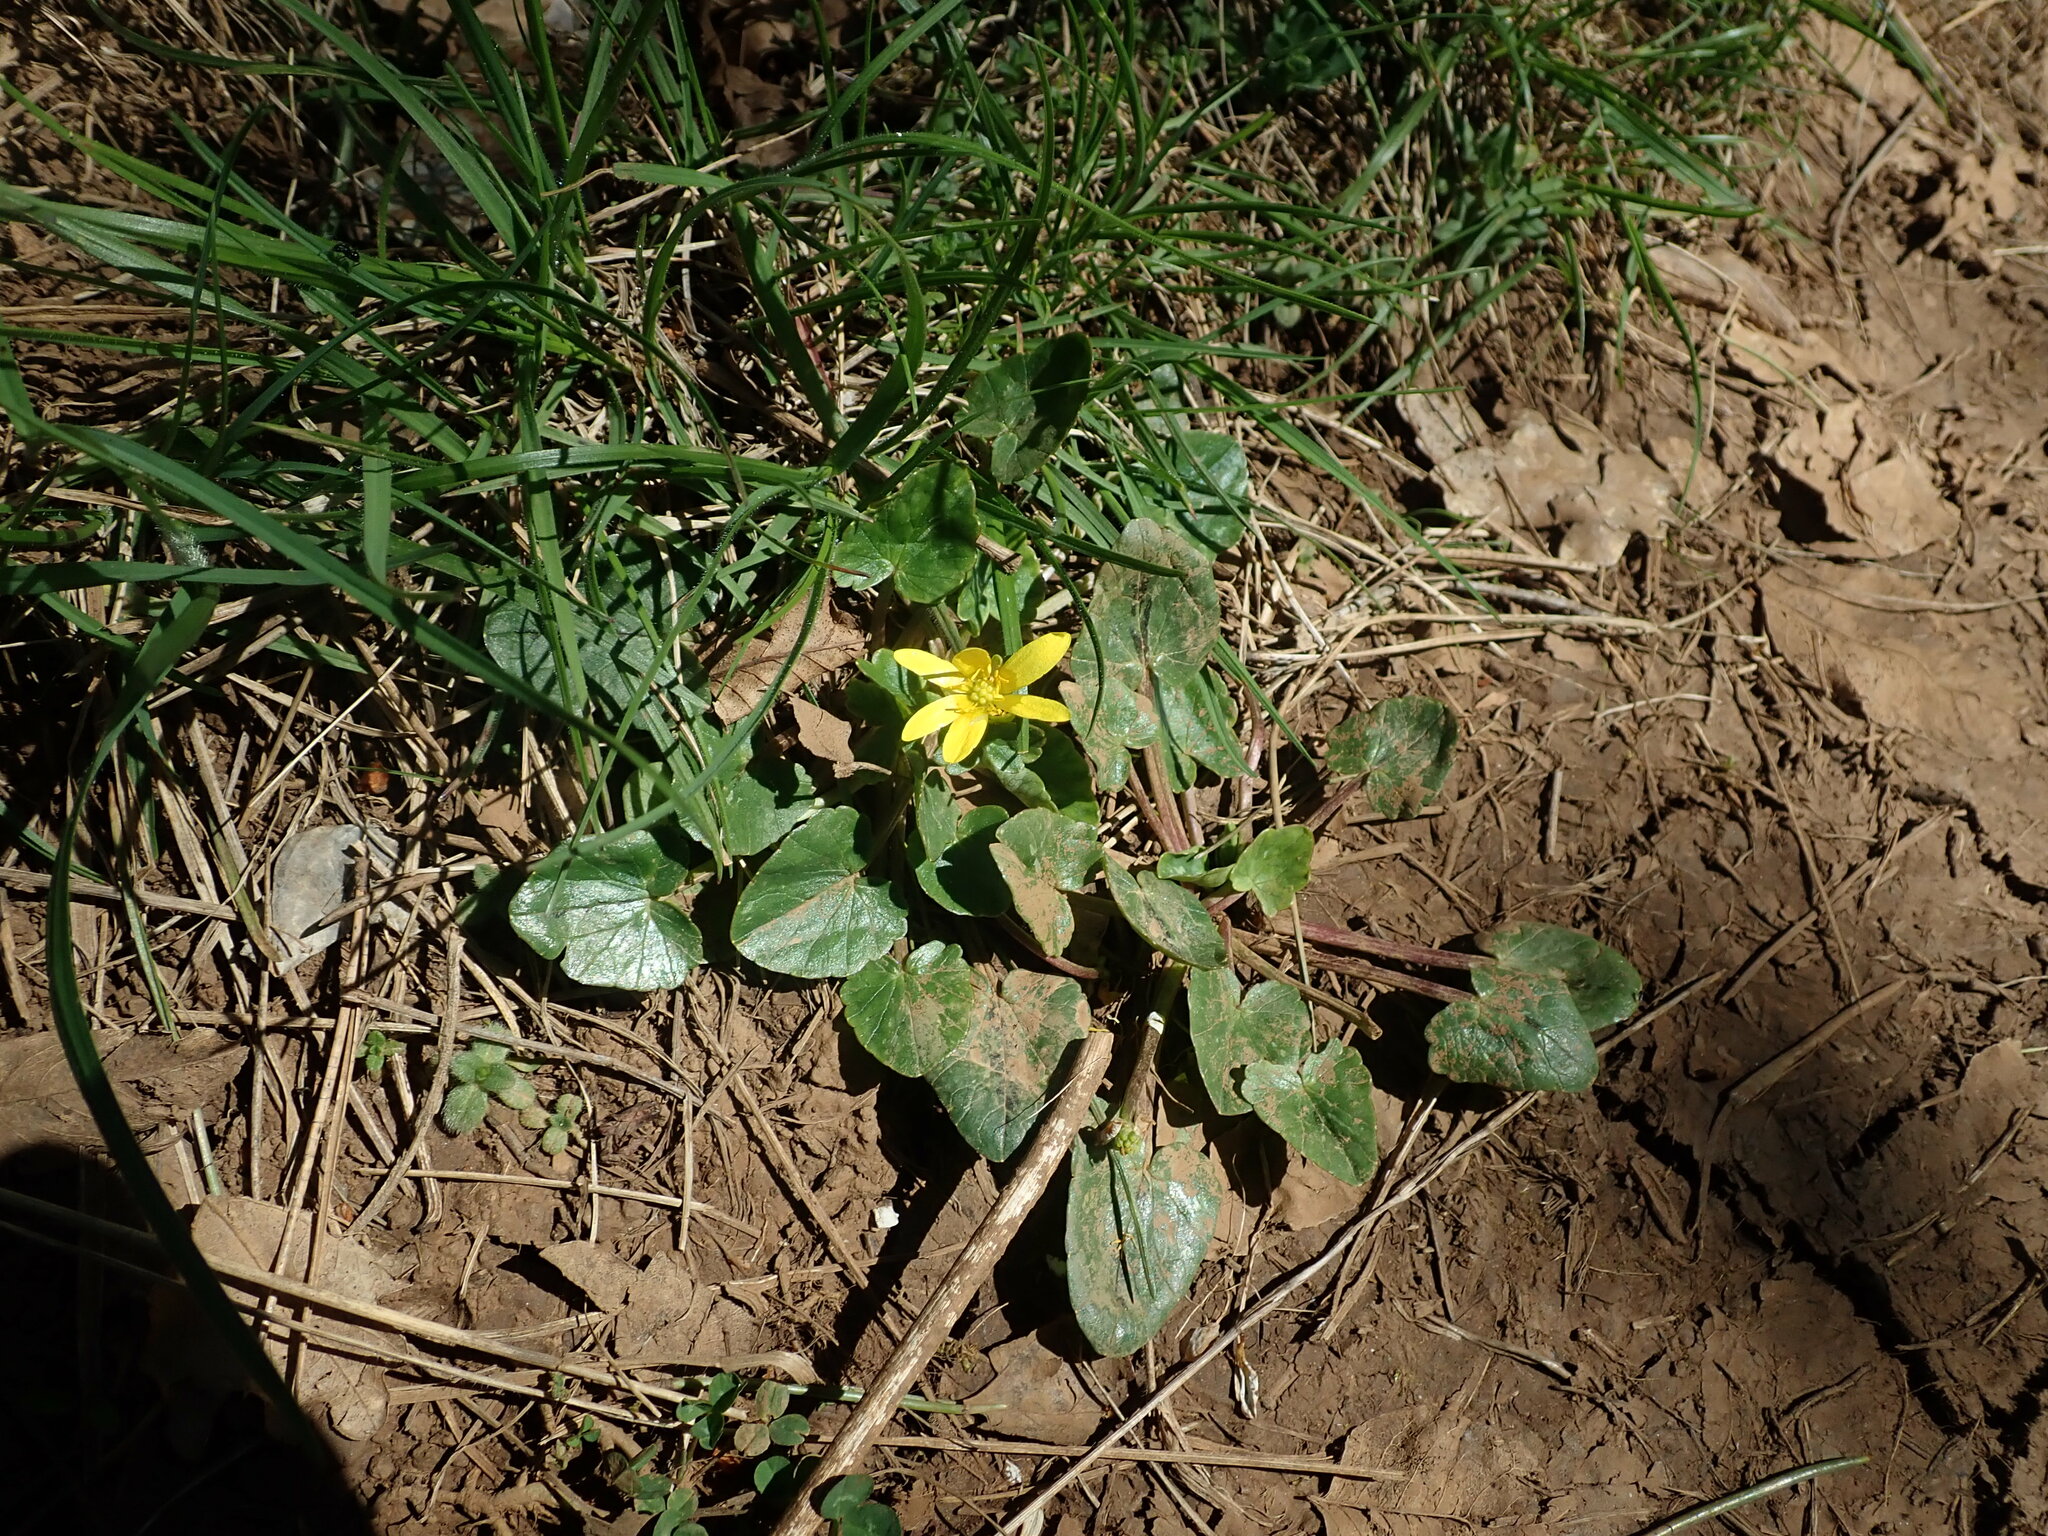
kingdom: Plantae
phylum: Tracheophyta
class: Magnoliopsida
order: Ranunculales
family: Ranunculaceae
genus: Ficaria
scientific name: Ficaria verna
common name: Lesser celandine
